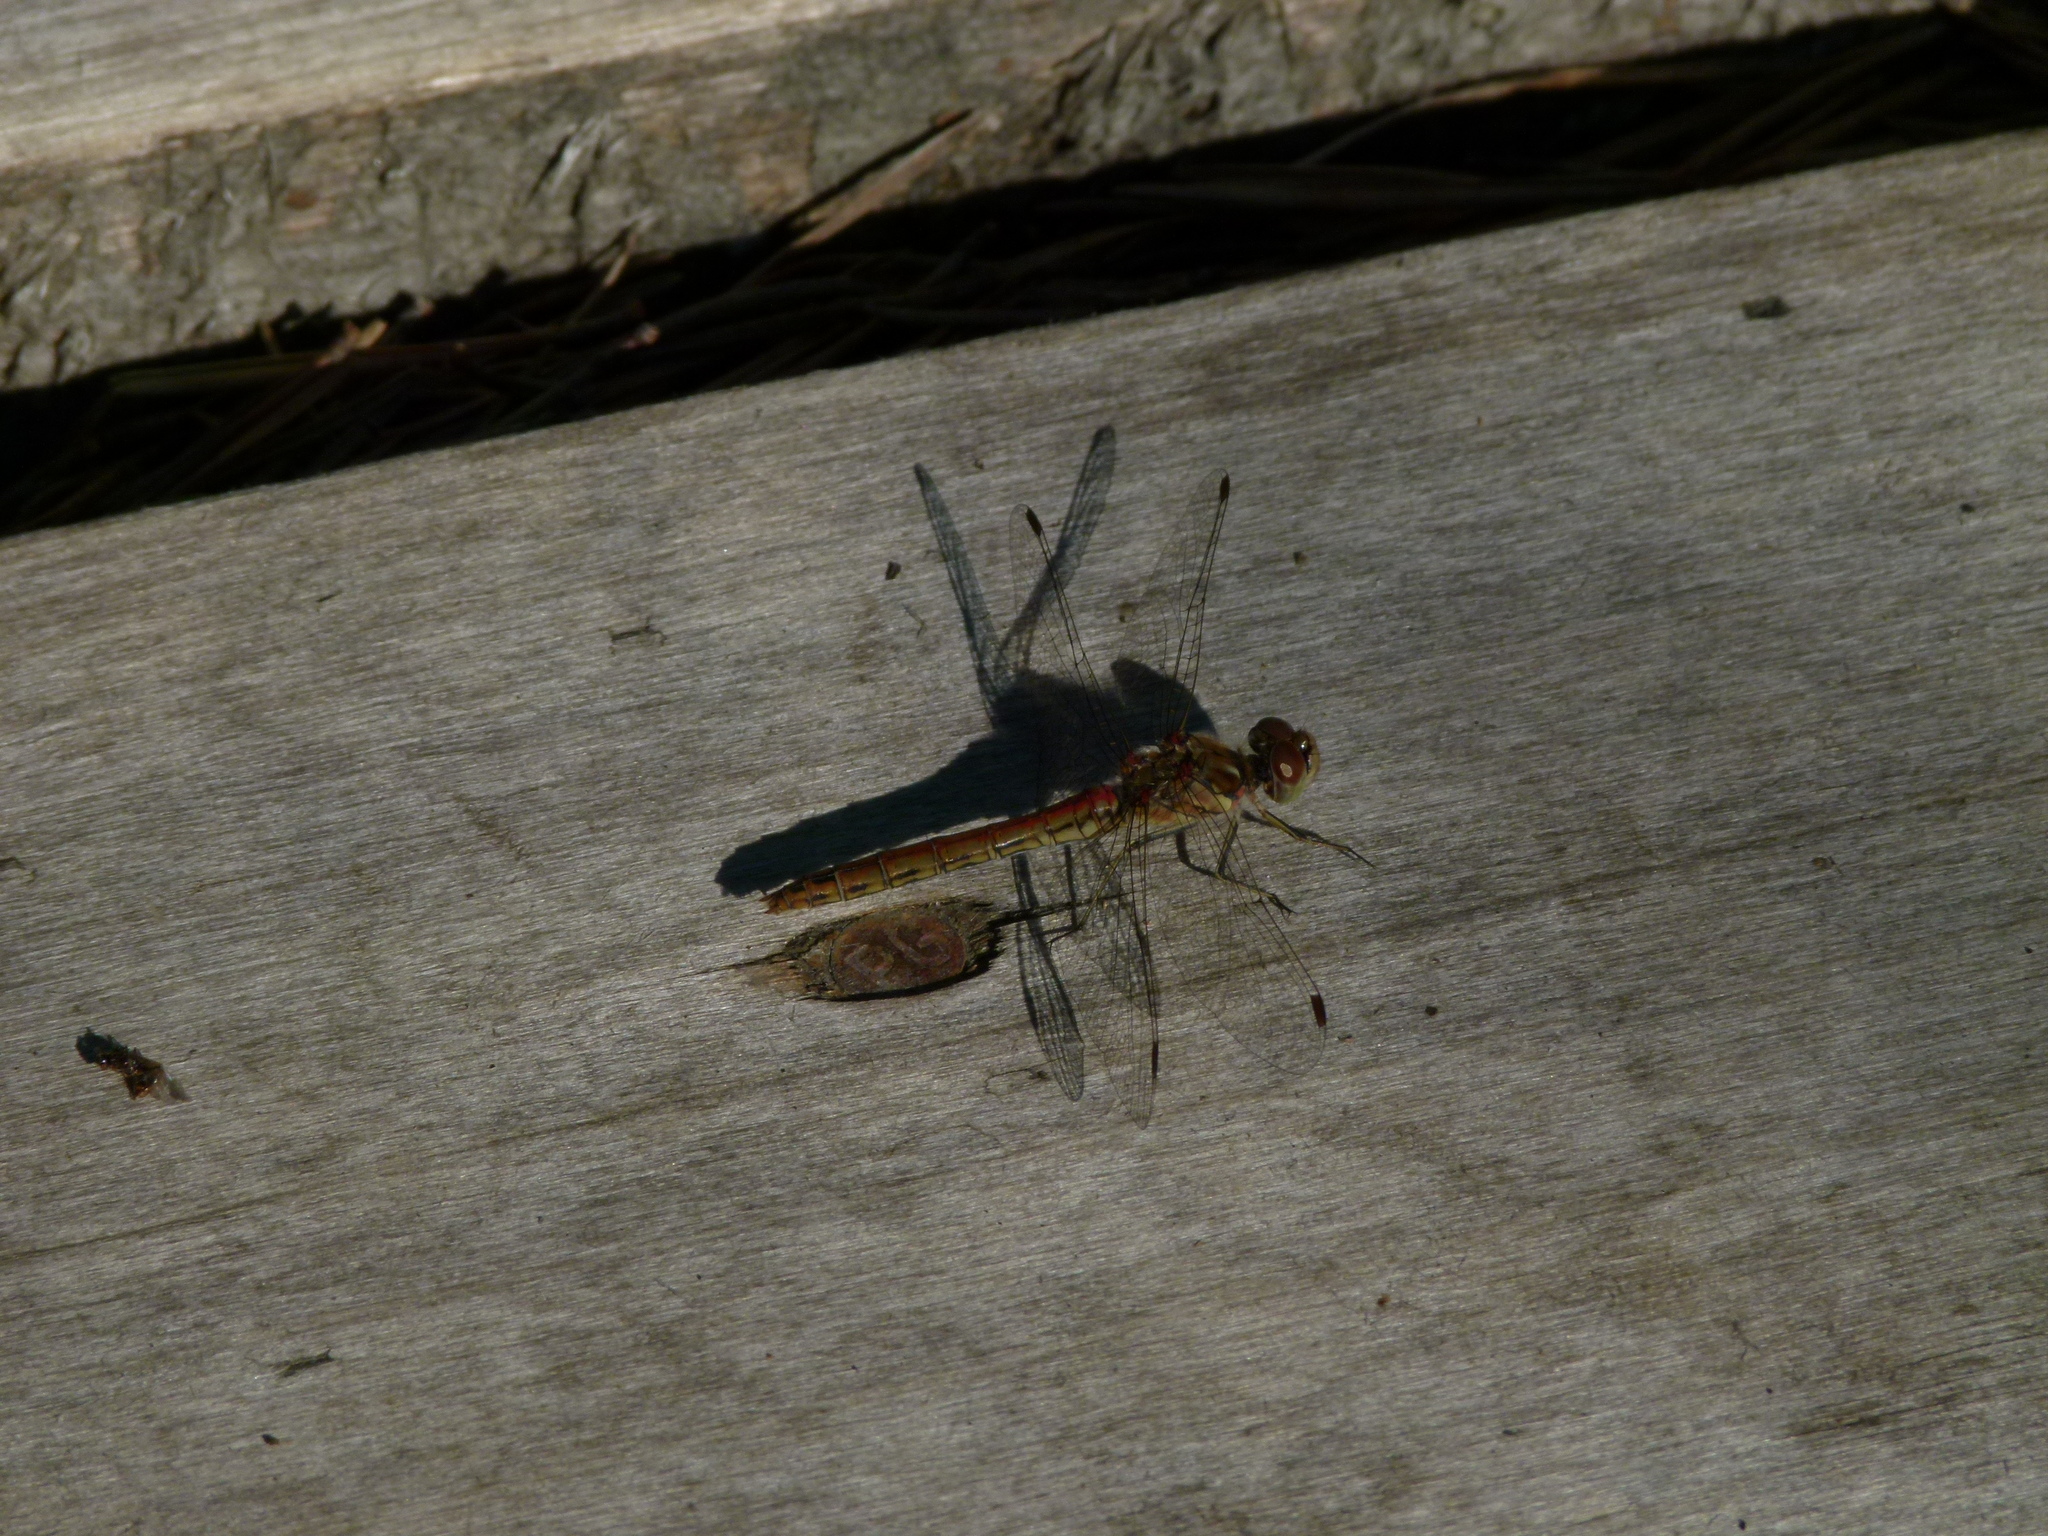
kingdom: Animalia
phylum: Arthropoda
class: Insecta
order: Odonata
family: Libellulidae
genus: Sympetrum
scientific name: Sympetrum vulgatum
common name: Vagrant darter
